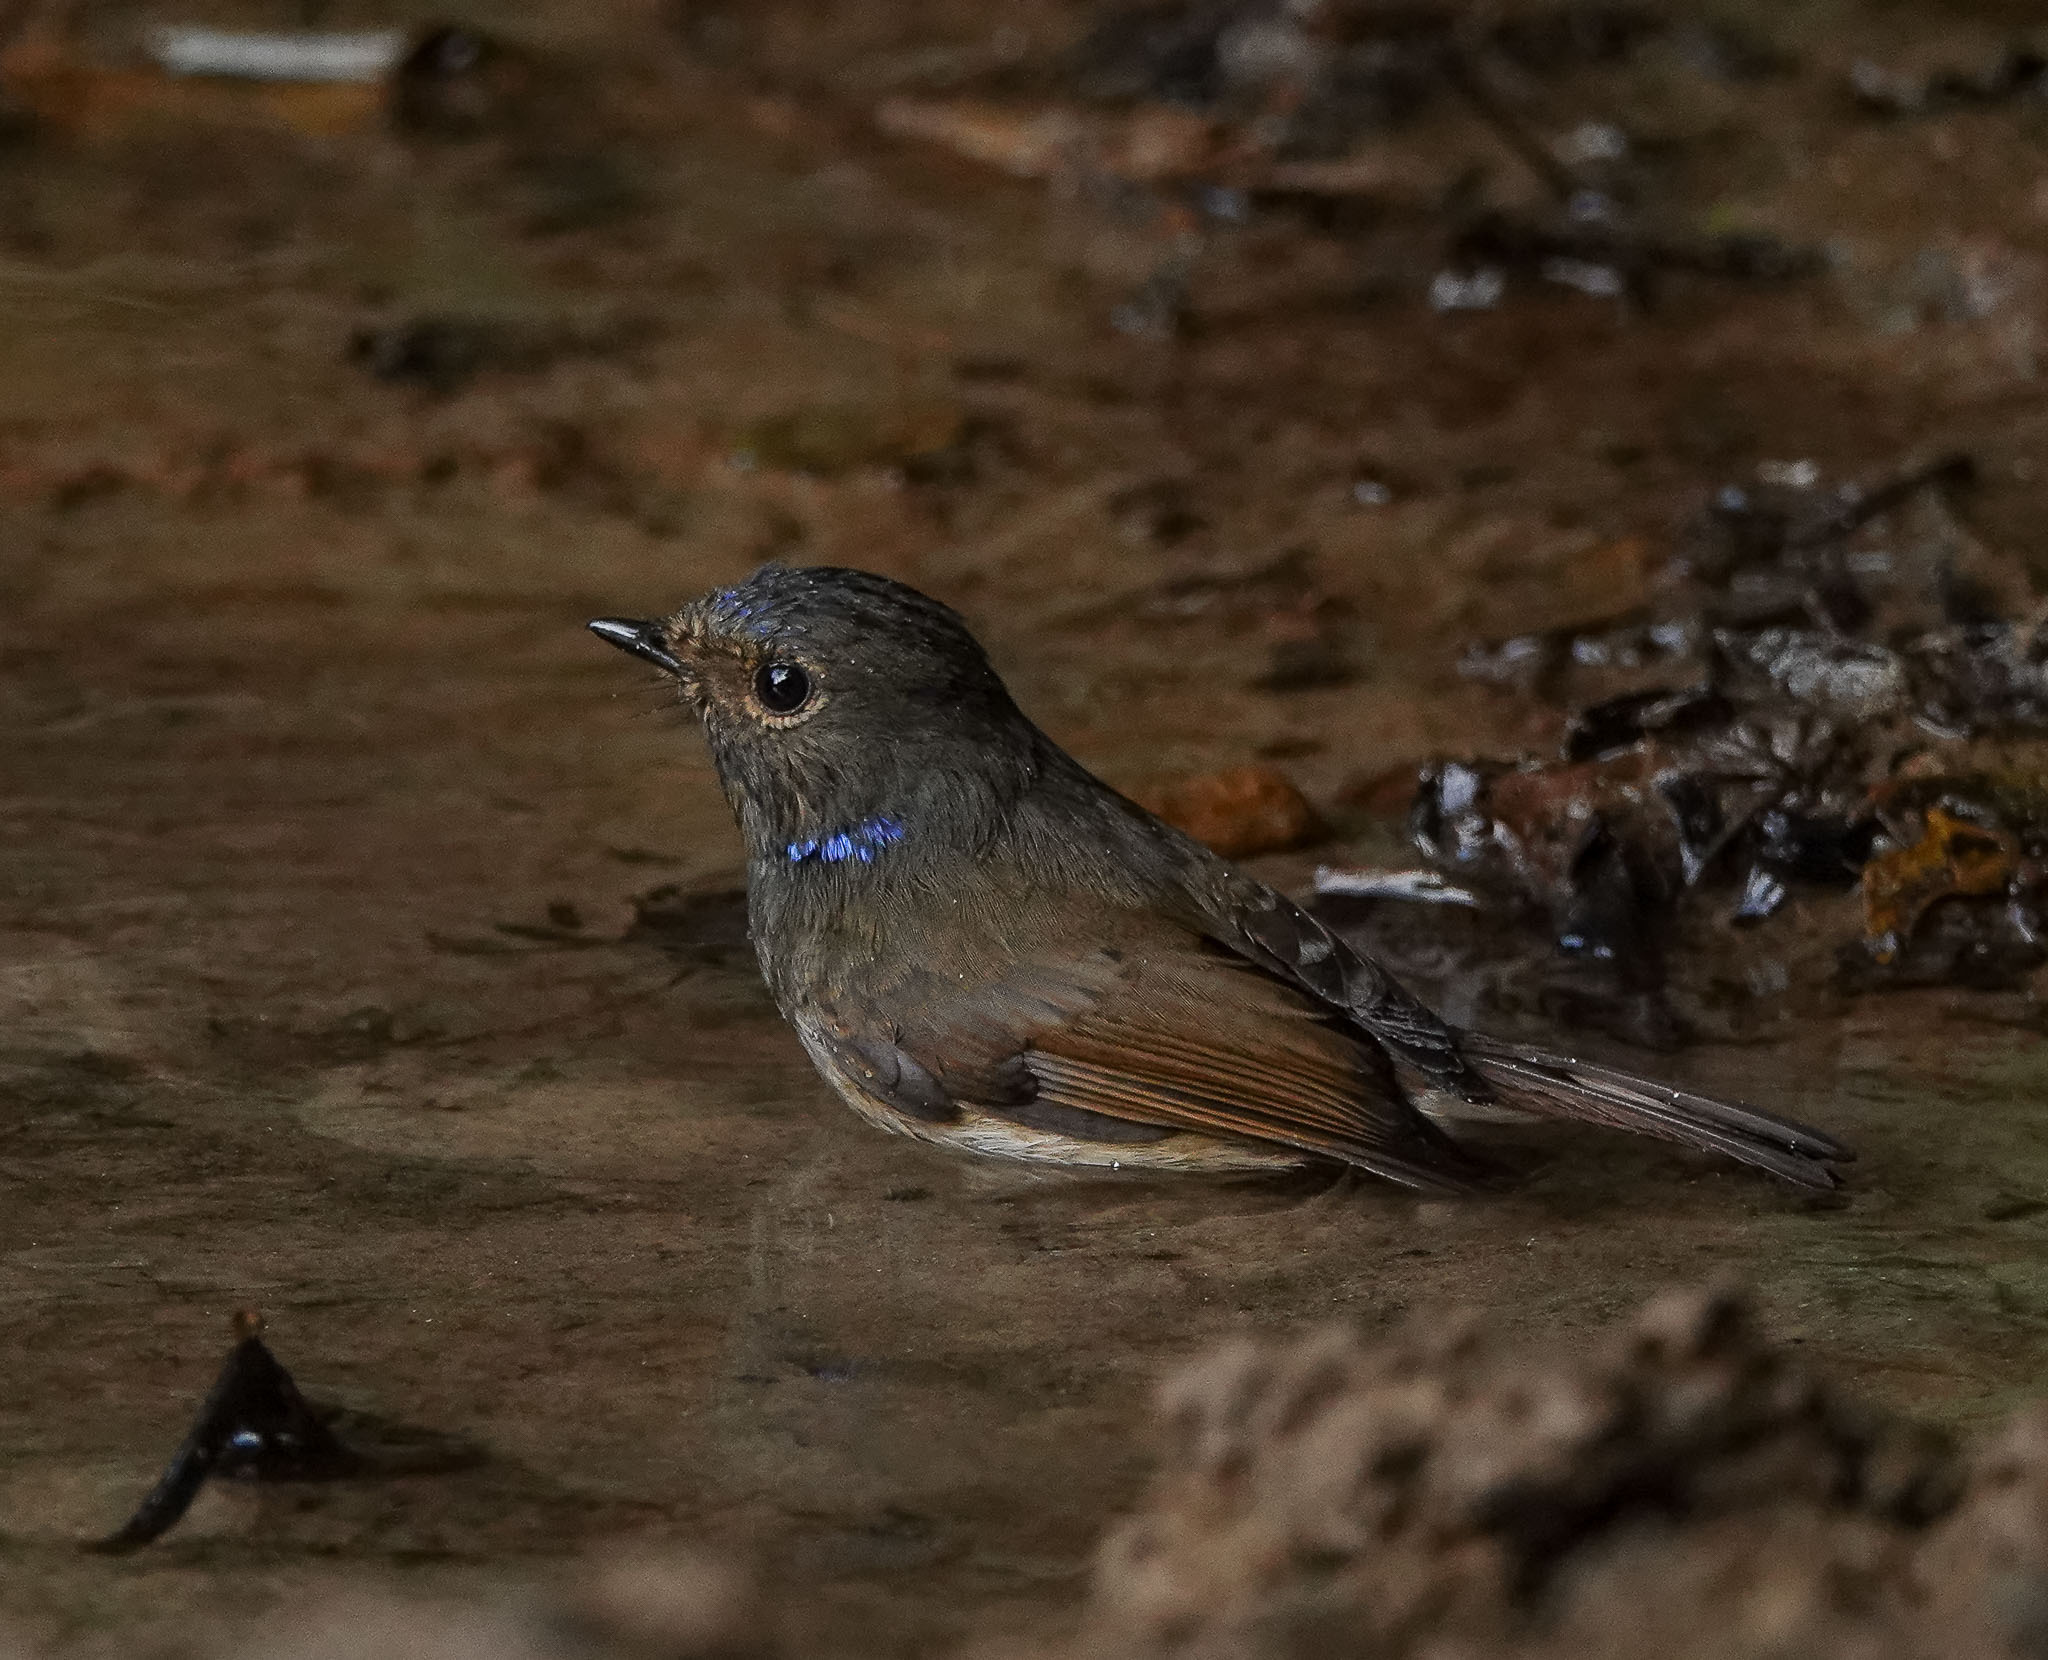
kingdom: Animalia
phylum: Chordata
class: Aves
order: Passeriformes
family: Muscicapidae
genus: Niltava
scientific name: Niltava macgrigoriae
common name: Small niltava
